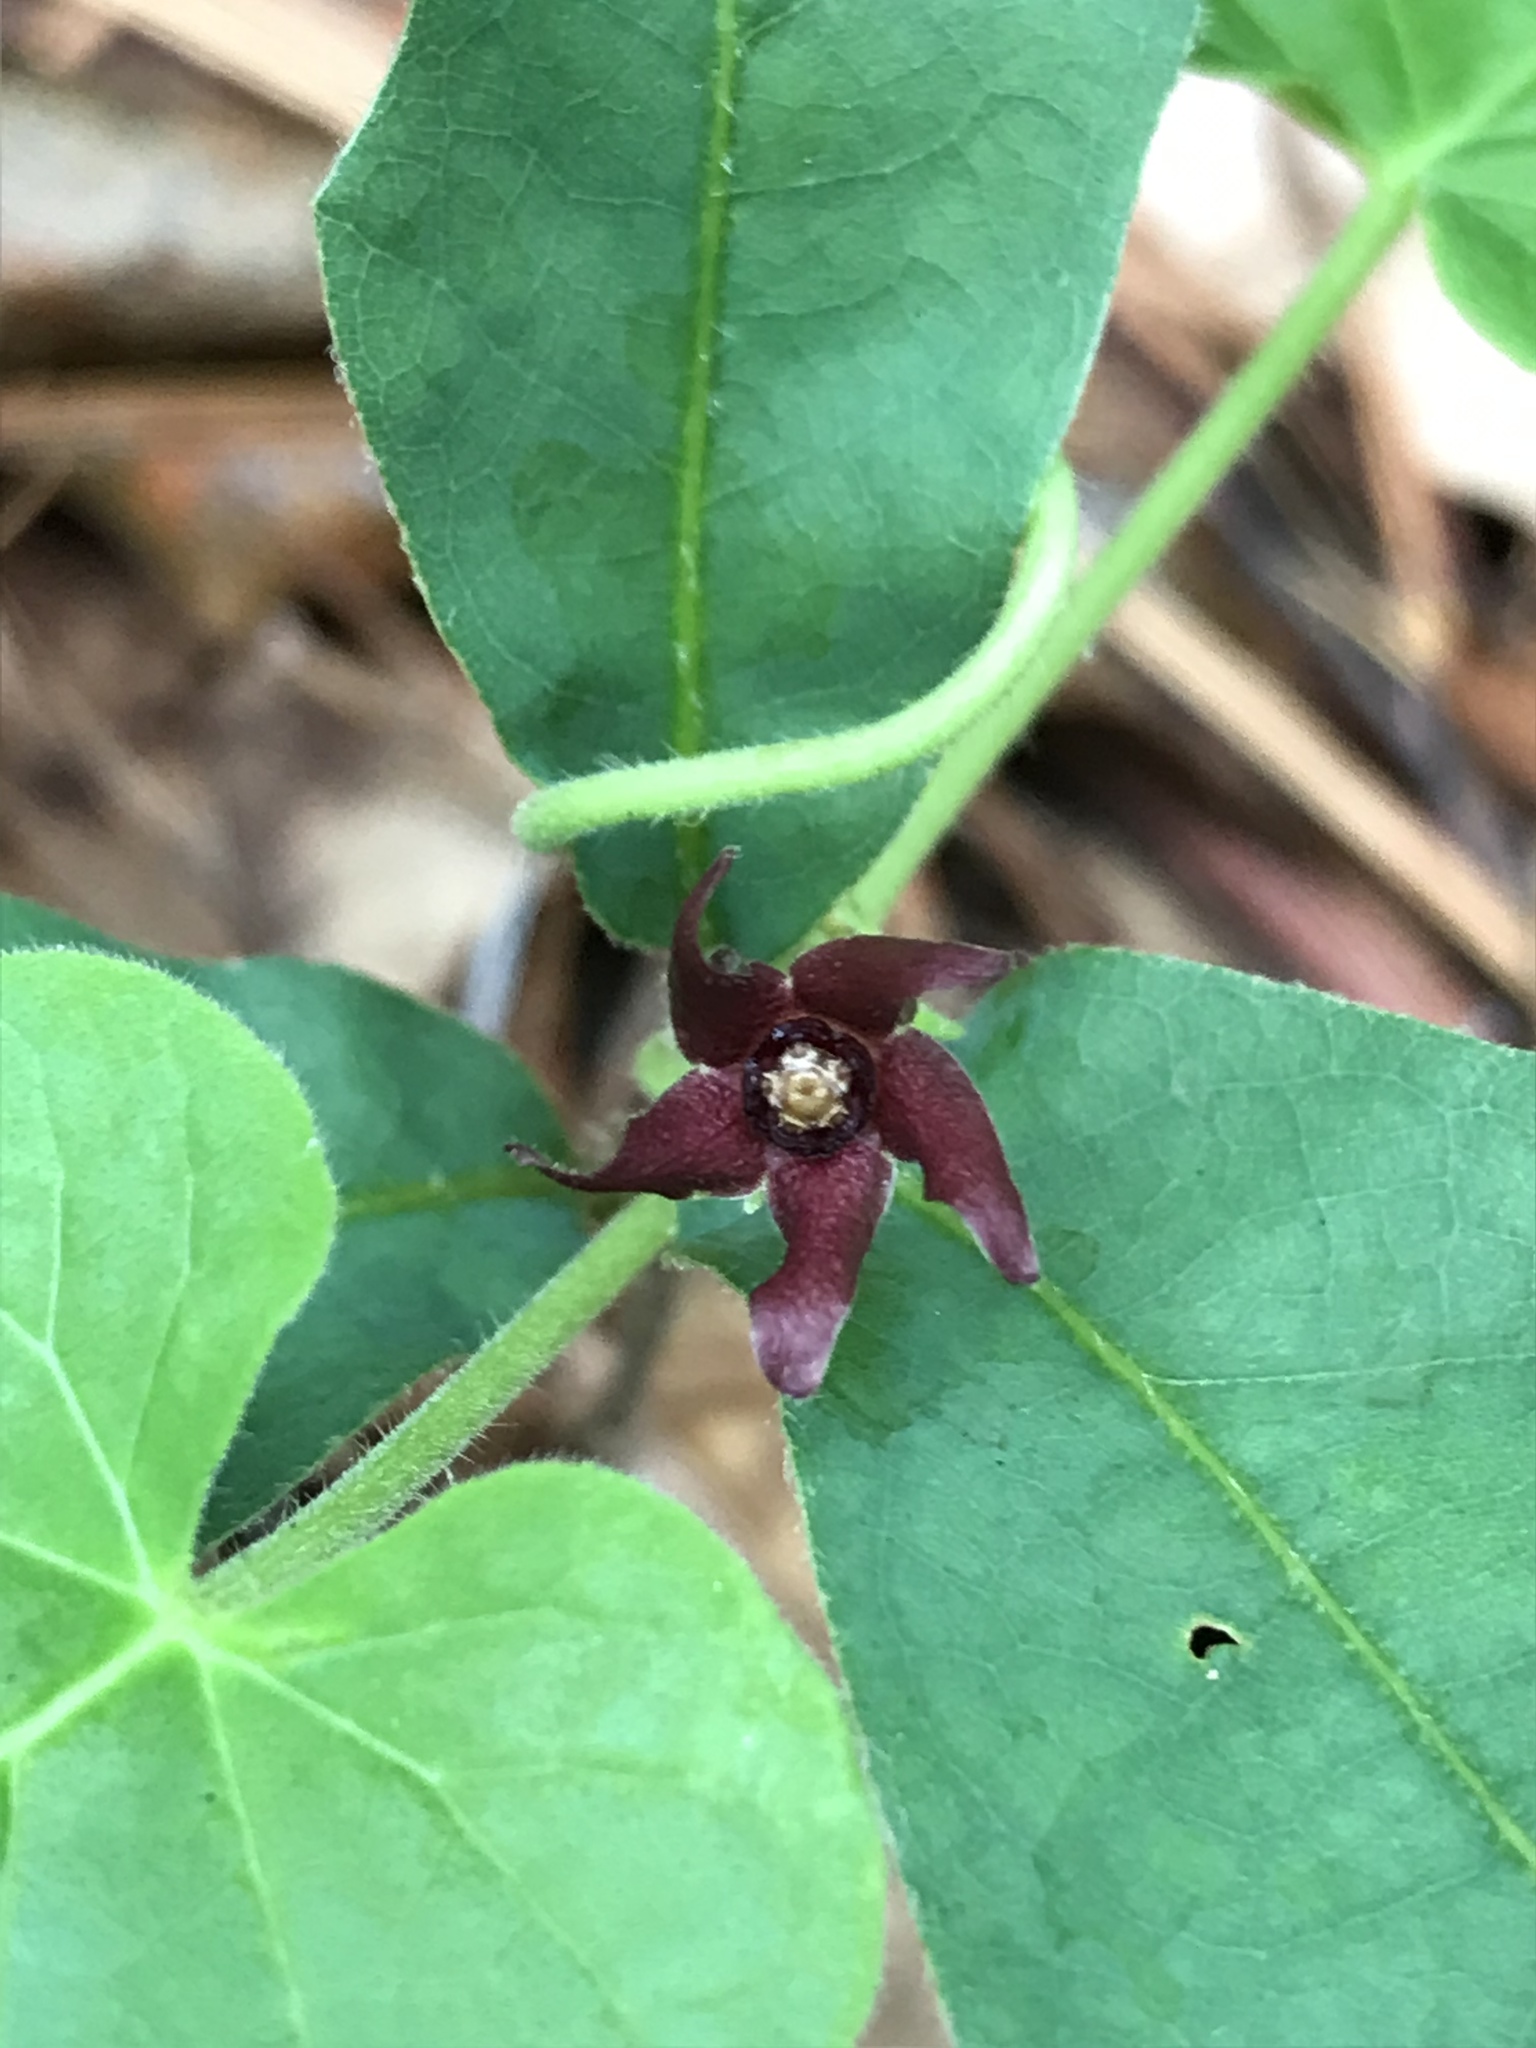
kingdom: Plantae
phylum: Tracheophyta
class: Magnoliopsida
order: Gentianales
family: Apocynaceae
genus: Matelea
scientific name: Matelea decipiens
